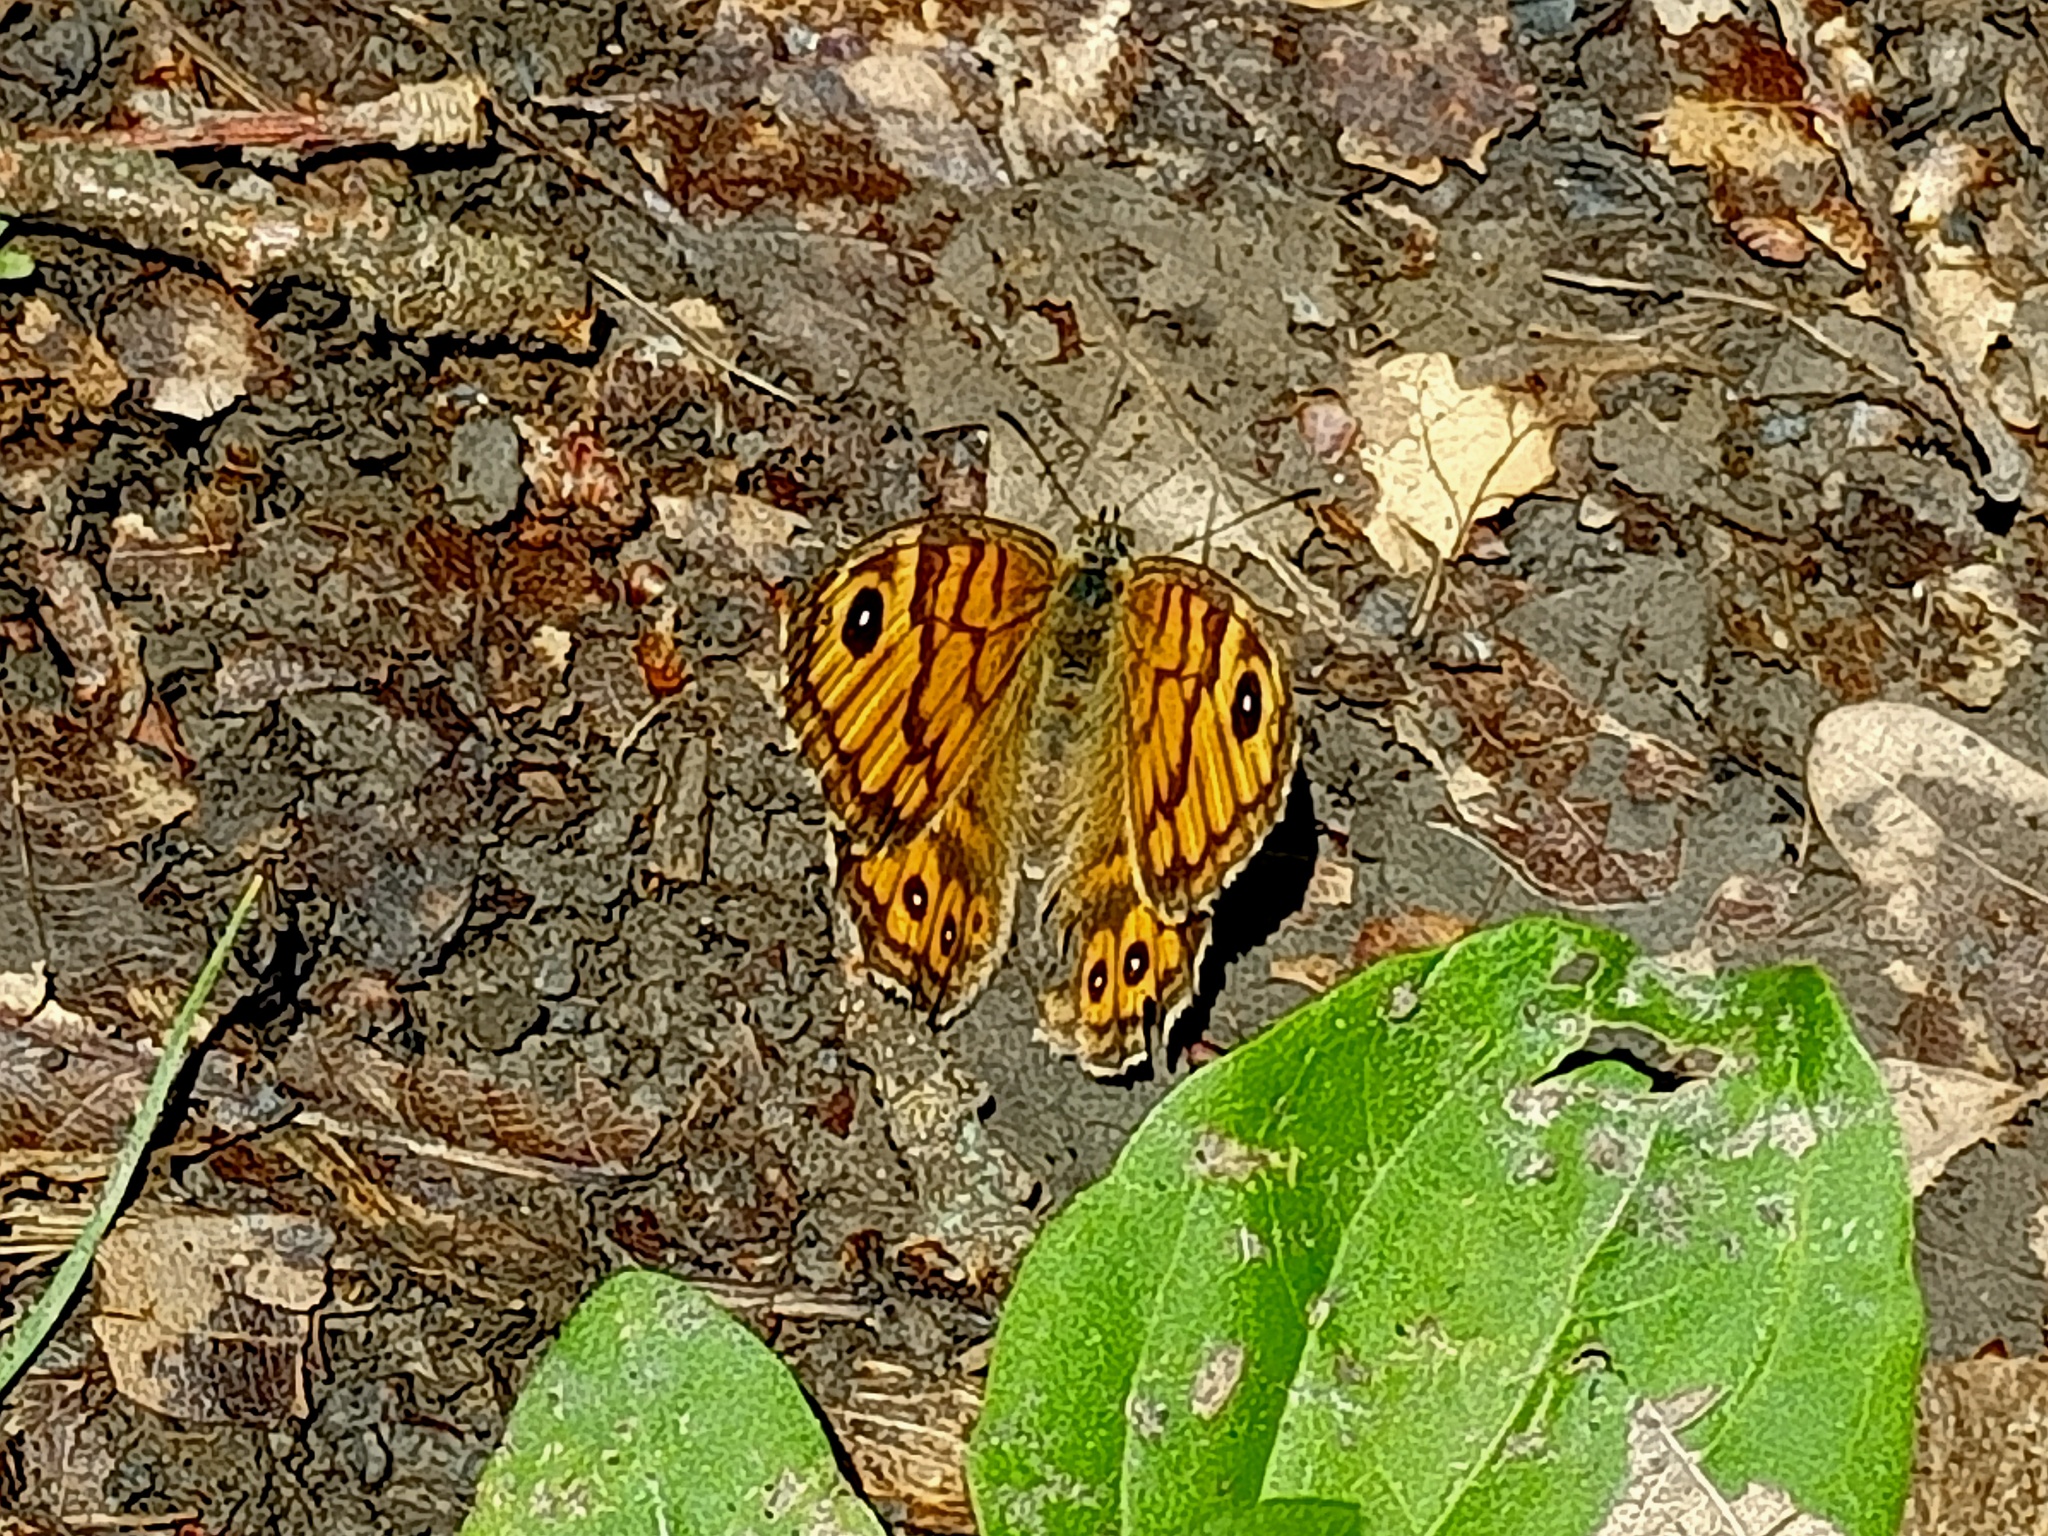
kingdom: Animalia
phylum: Arthropoda
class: Insecta
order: Lepidoptera
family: Nymphalidae
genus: Pararge
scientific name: Pararge Lasiommata megera
